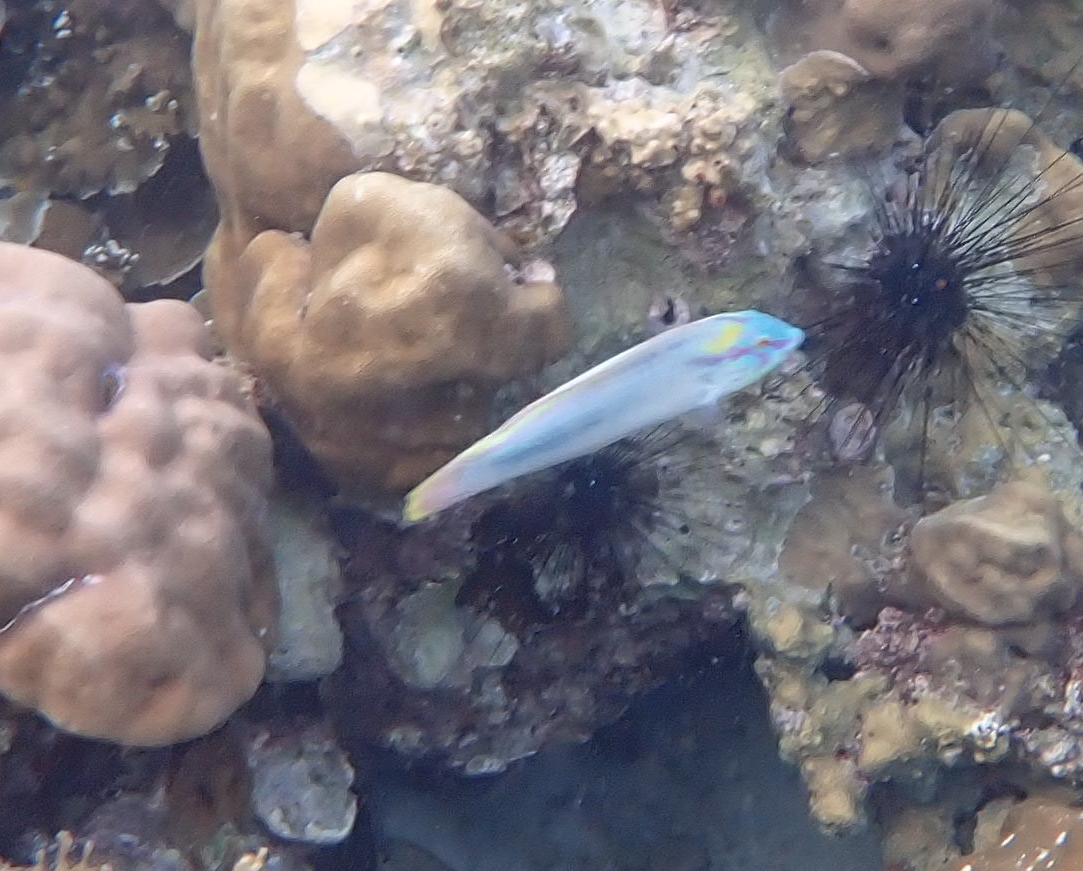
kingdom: Animalia
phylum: Chordata
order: Perciformes
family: Labridae
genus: Halichoeres
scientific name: Halichoeres scapularis
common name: Brownbanded wrasse
